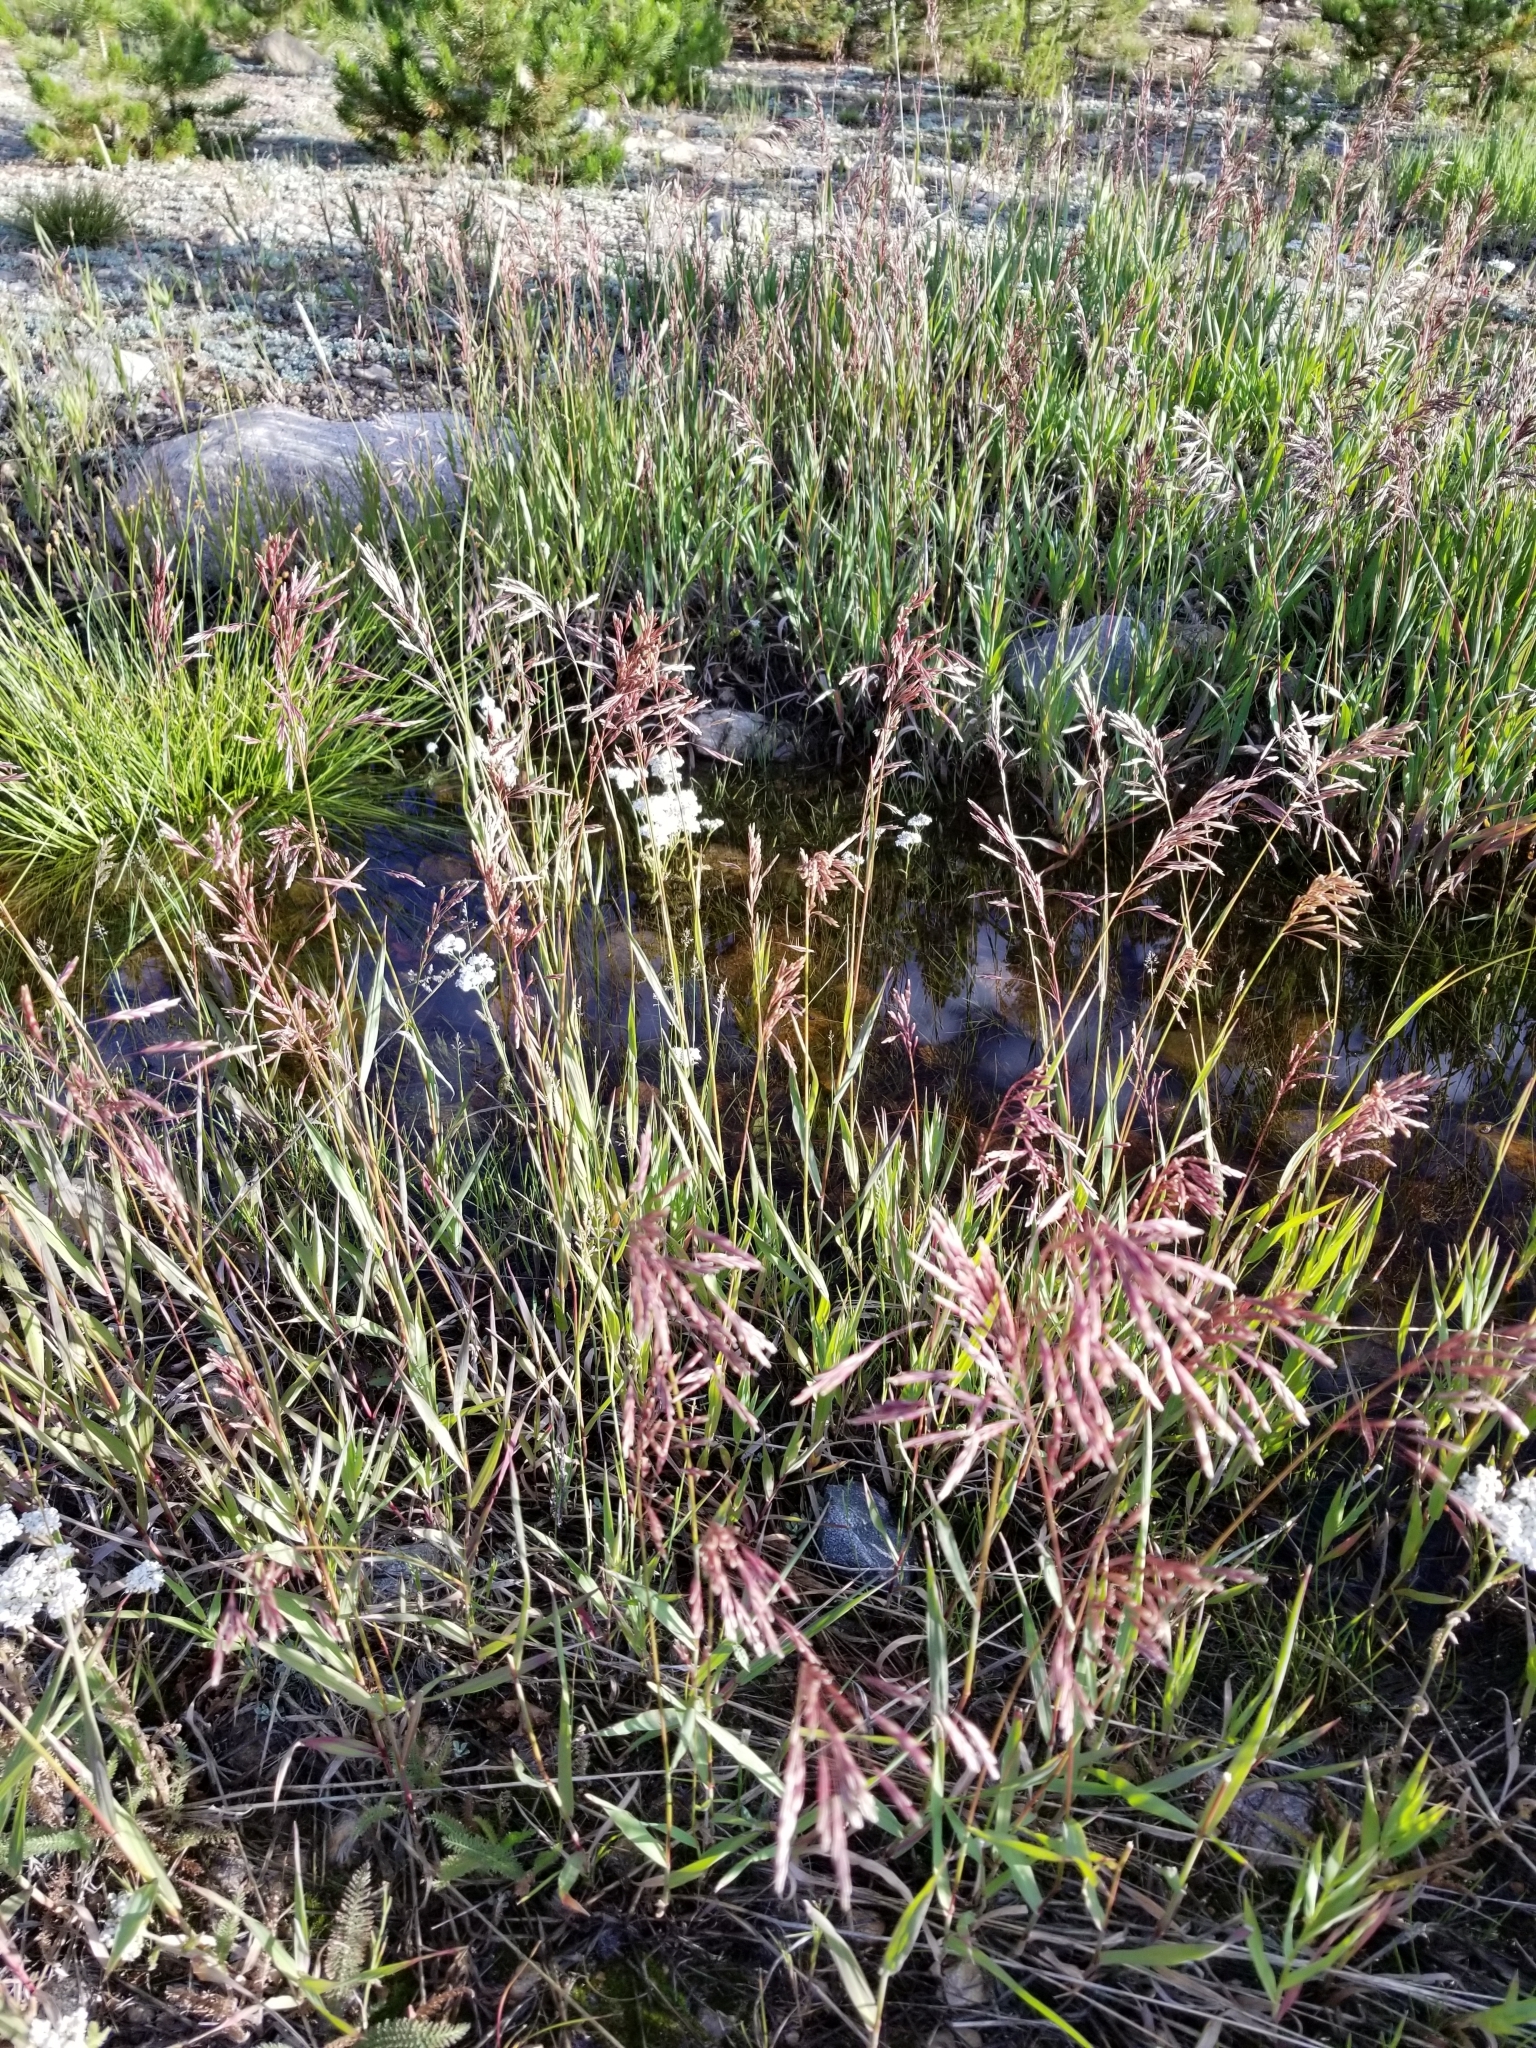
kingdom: Plantae
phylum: Tracheophyta
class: Liliopsida
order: Poales
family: Poaceae
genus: Bromus
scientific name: Bromus inermis
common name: Smooth brome
